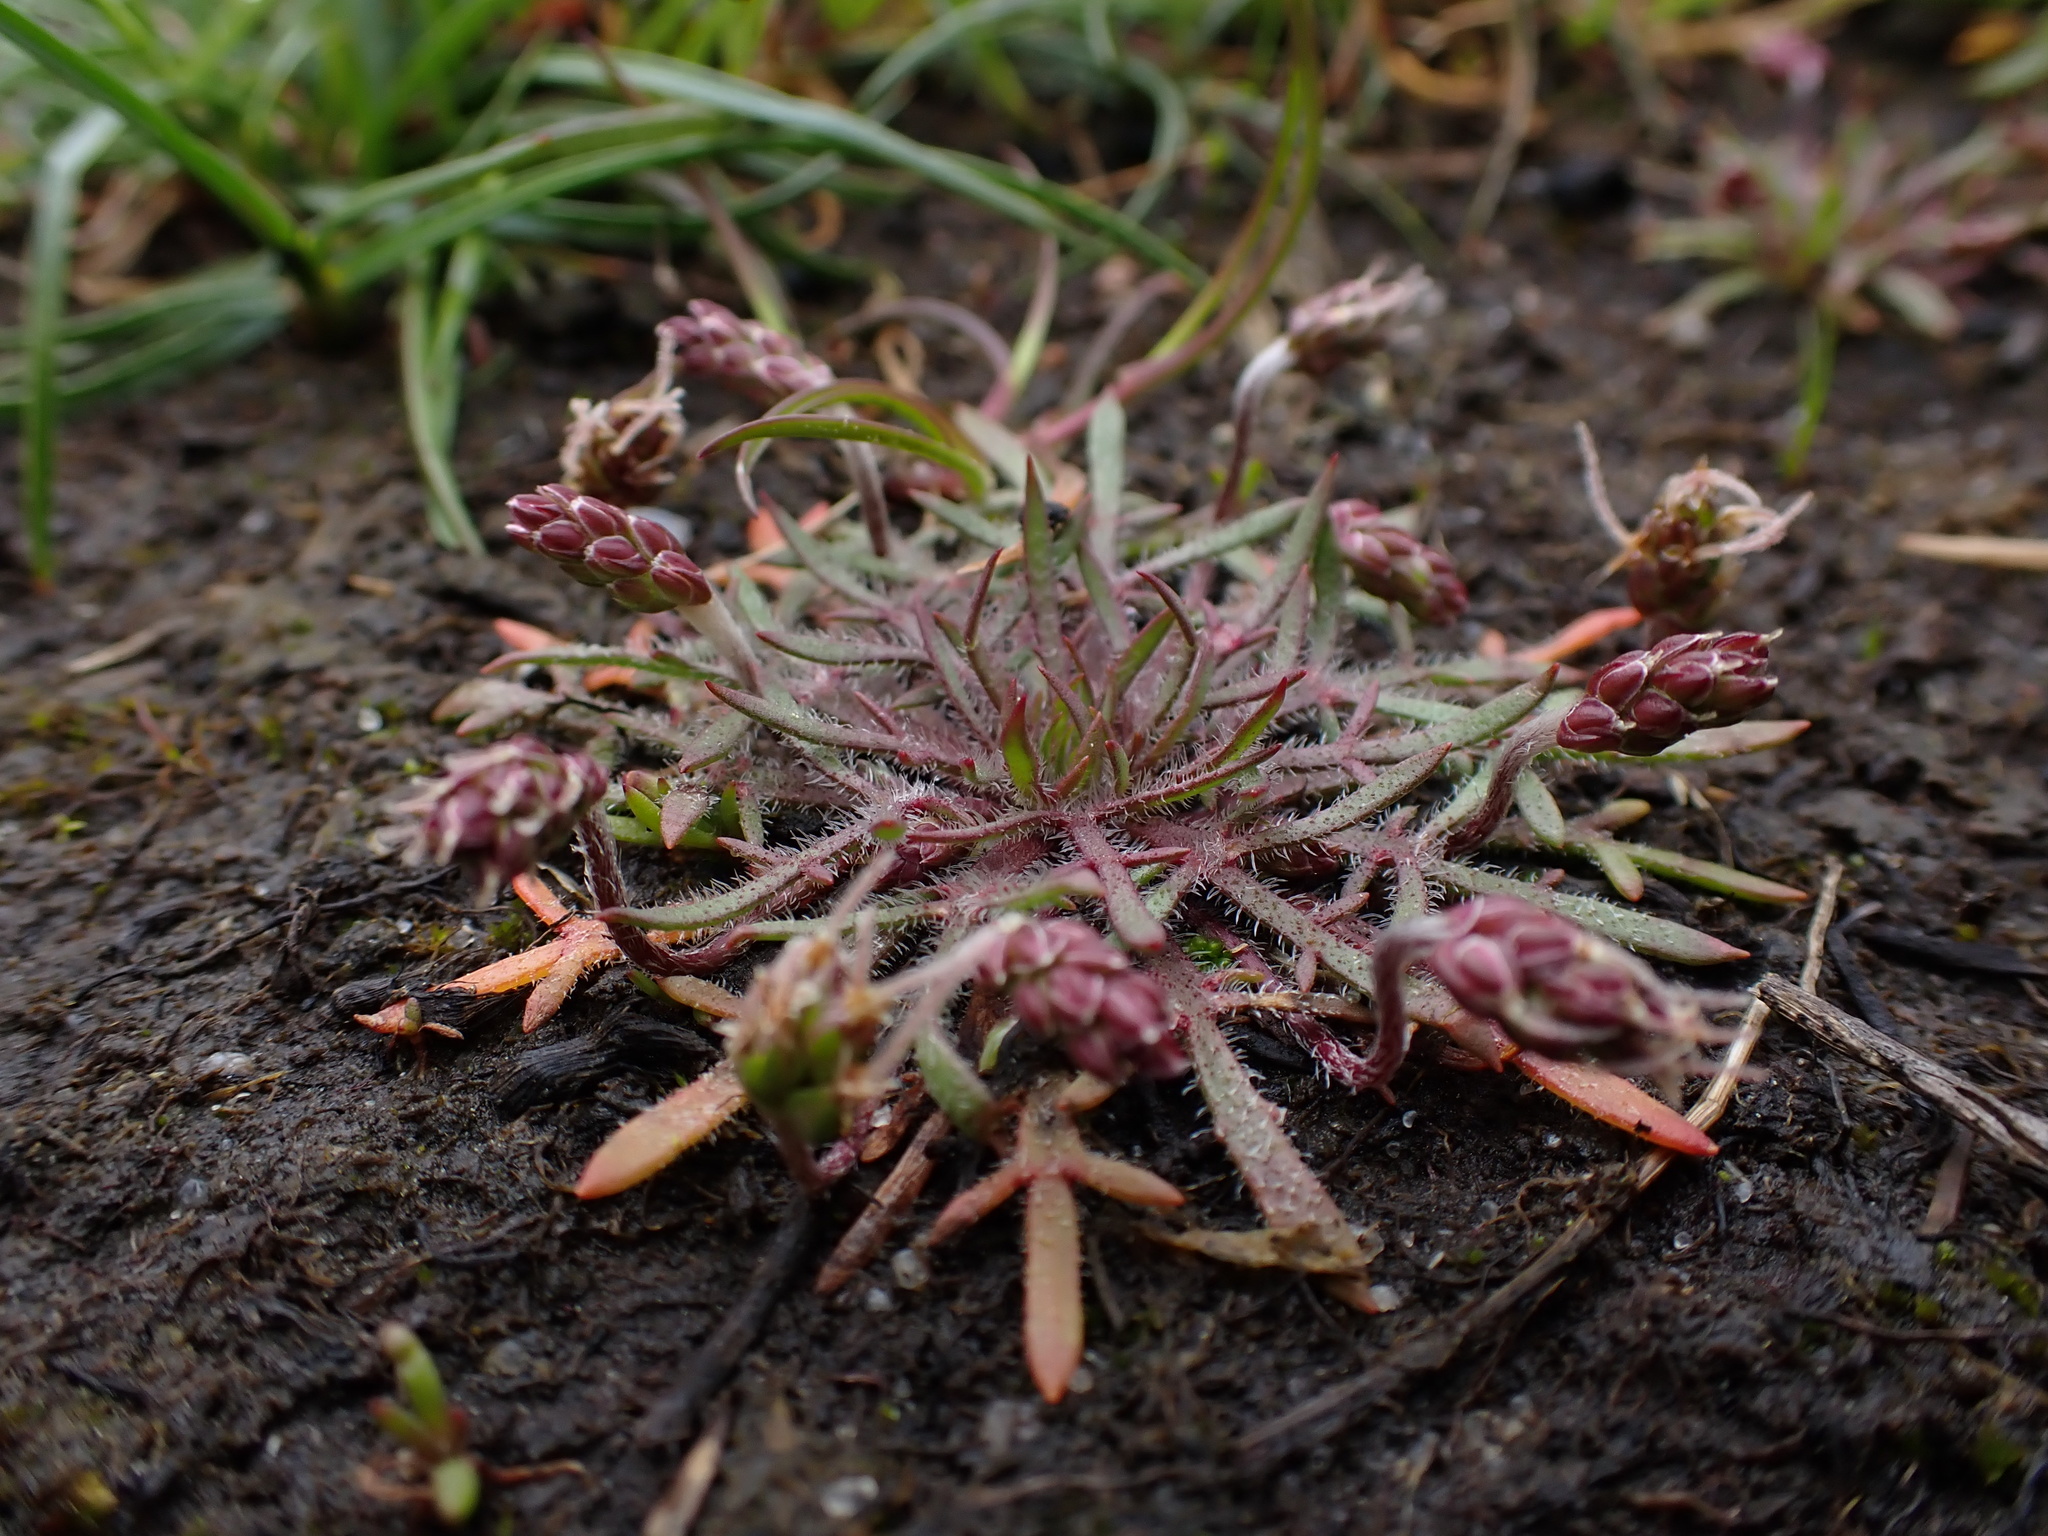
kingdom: Plantae
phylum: Tracheophyta
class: Magnoliopsida
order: Lamiales
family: Plantaginaceae
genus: Plantago
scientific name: Plantago coronopus
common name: Buck's-horn plantain
